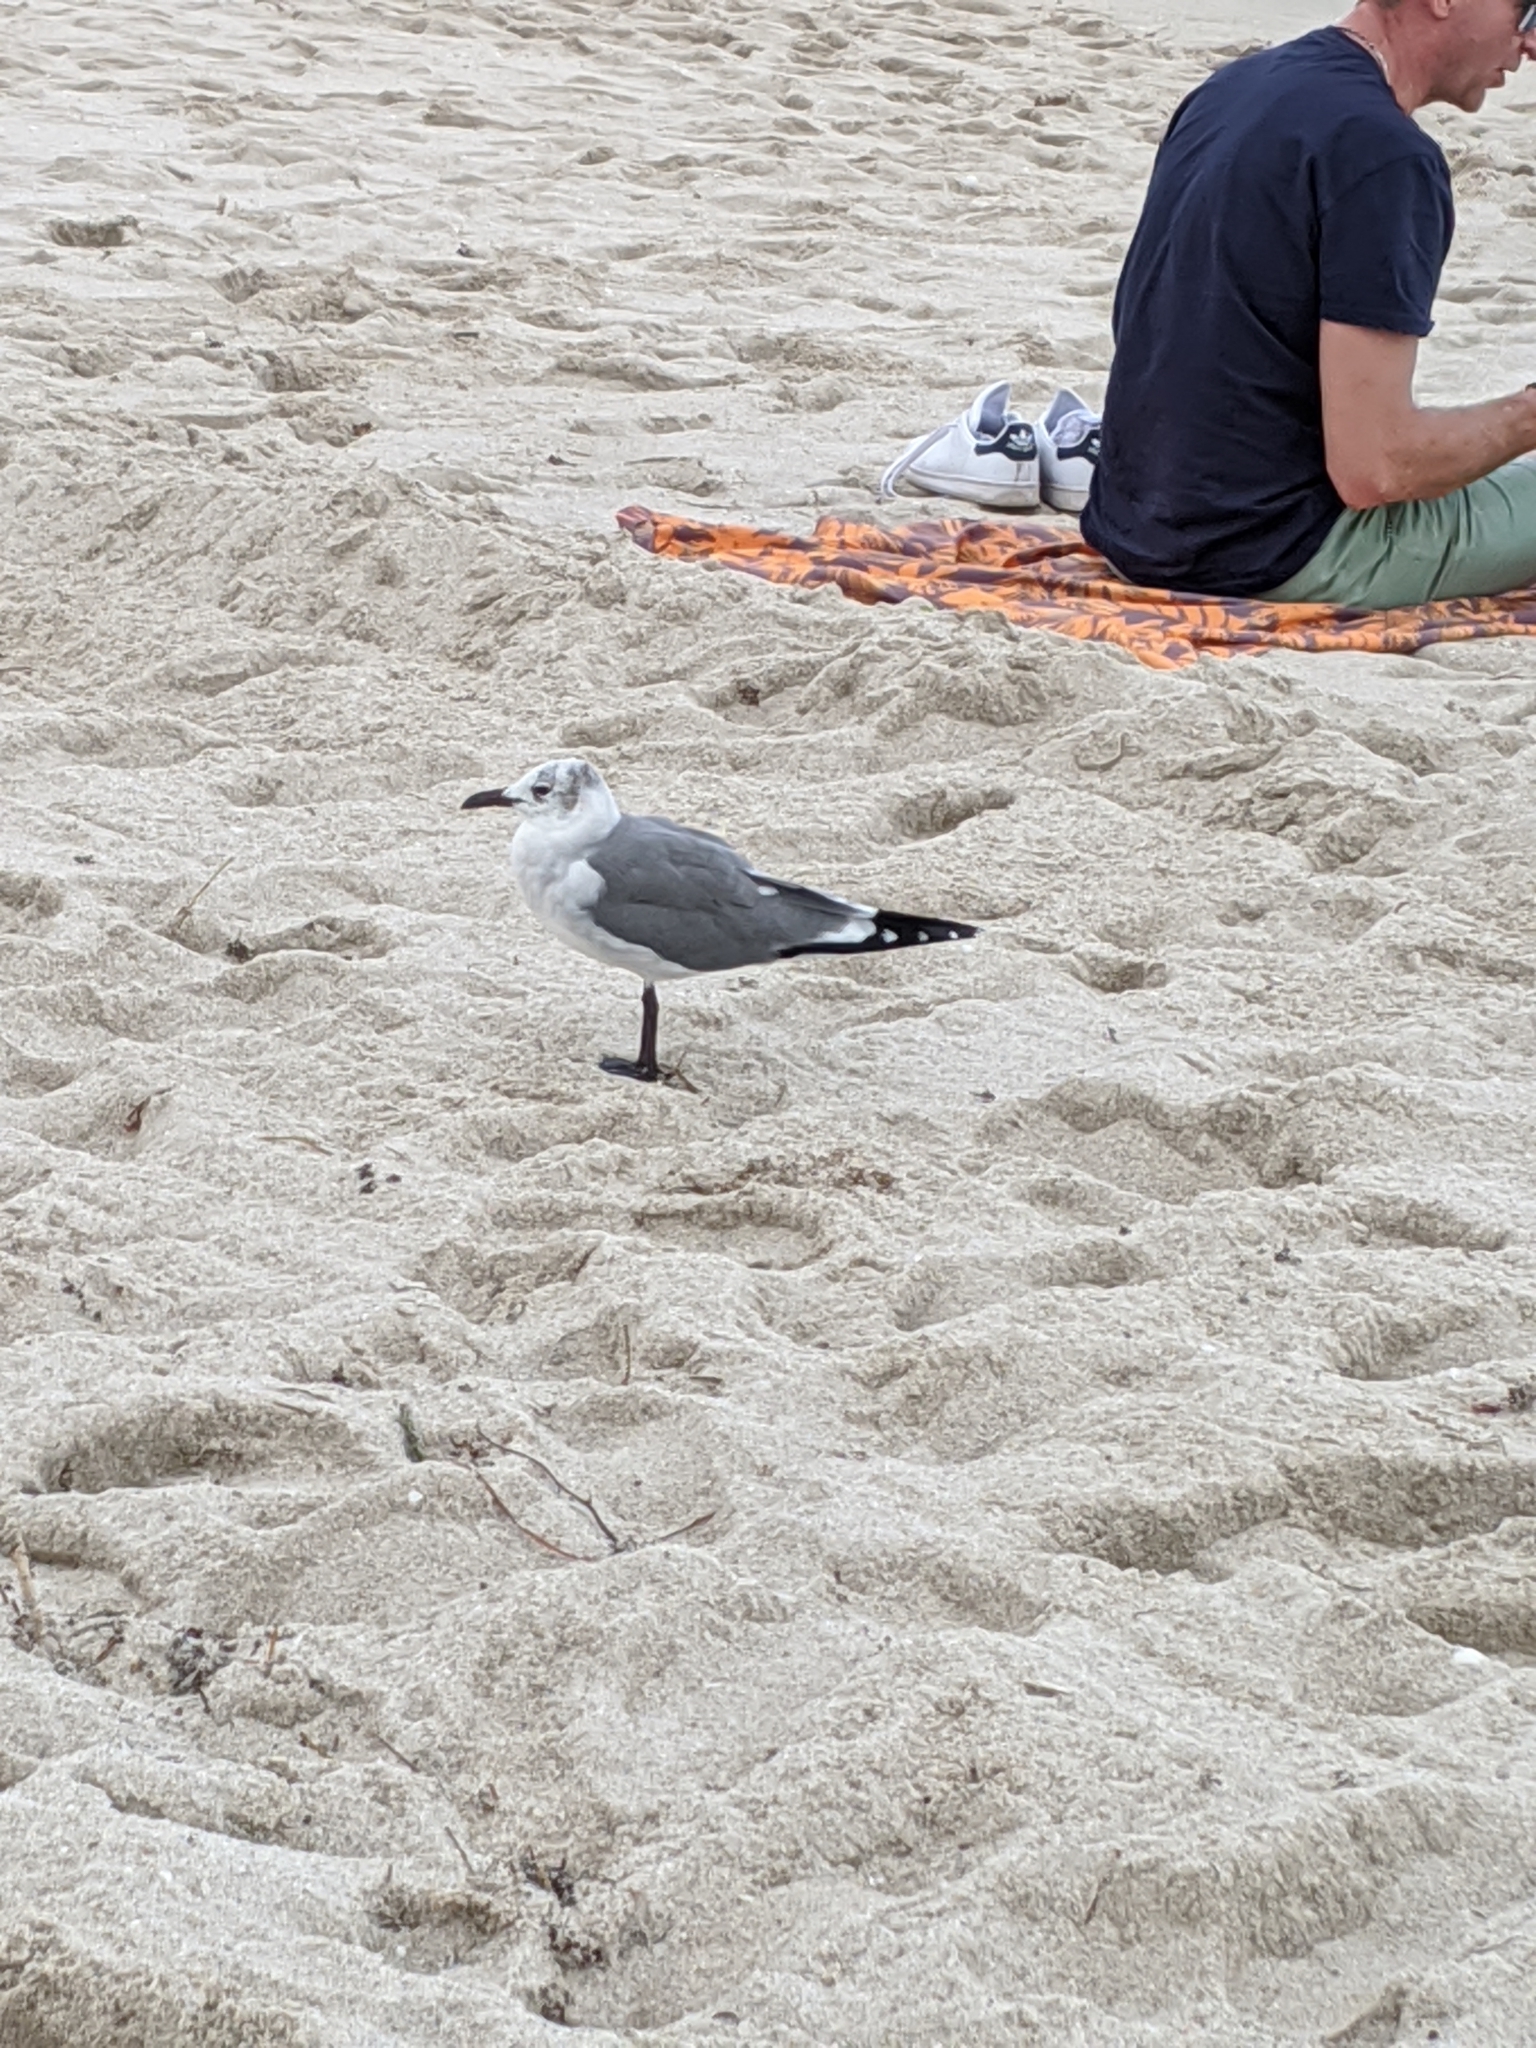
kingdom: Animalia
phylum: Chordata
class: Aves
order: Charadriiformes
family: Laridae
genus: Leucophaeus
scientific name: Leucophaeus atricilla
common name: Laughing gull
